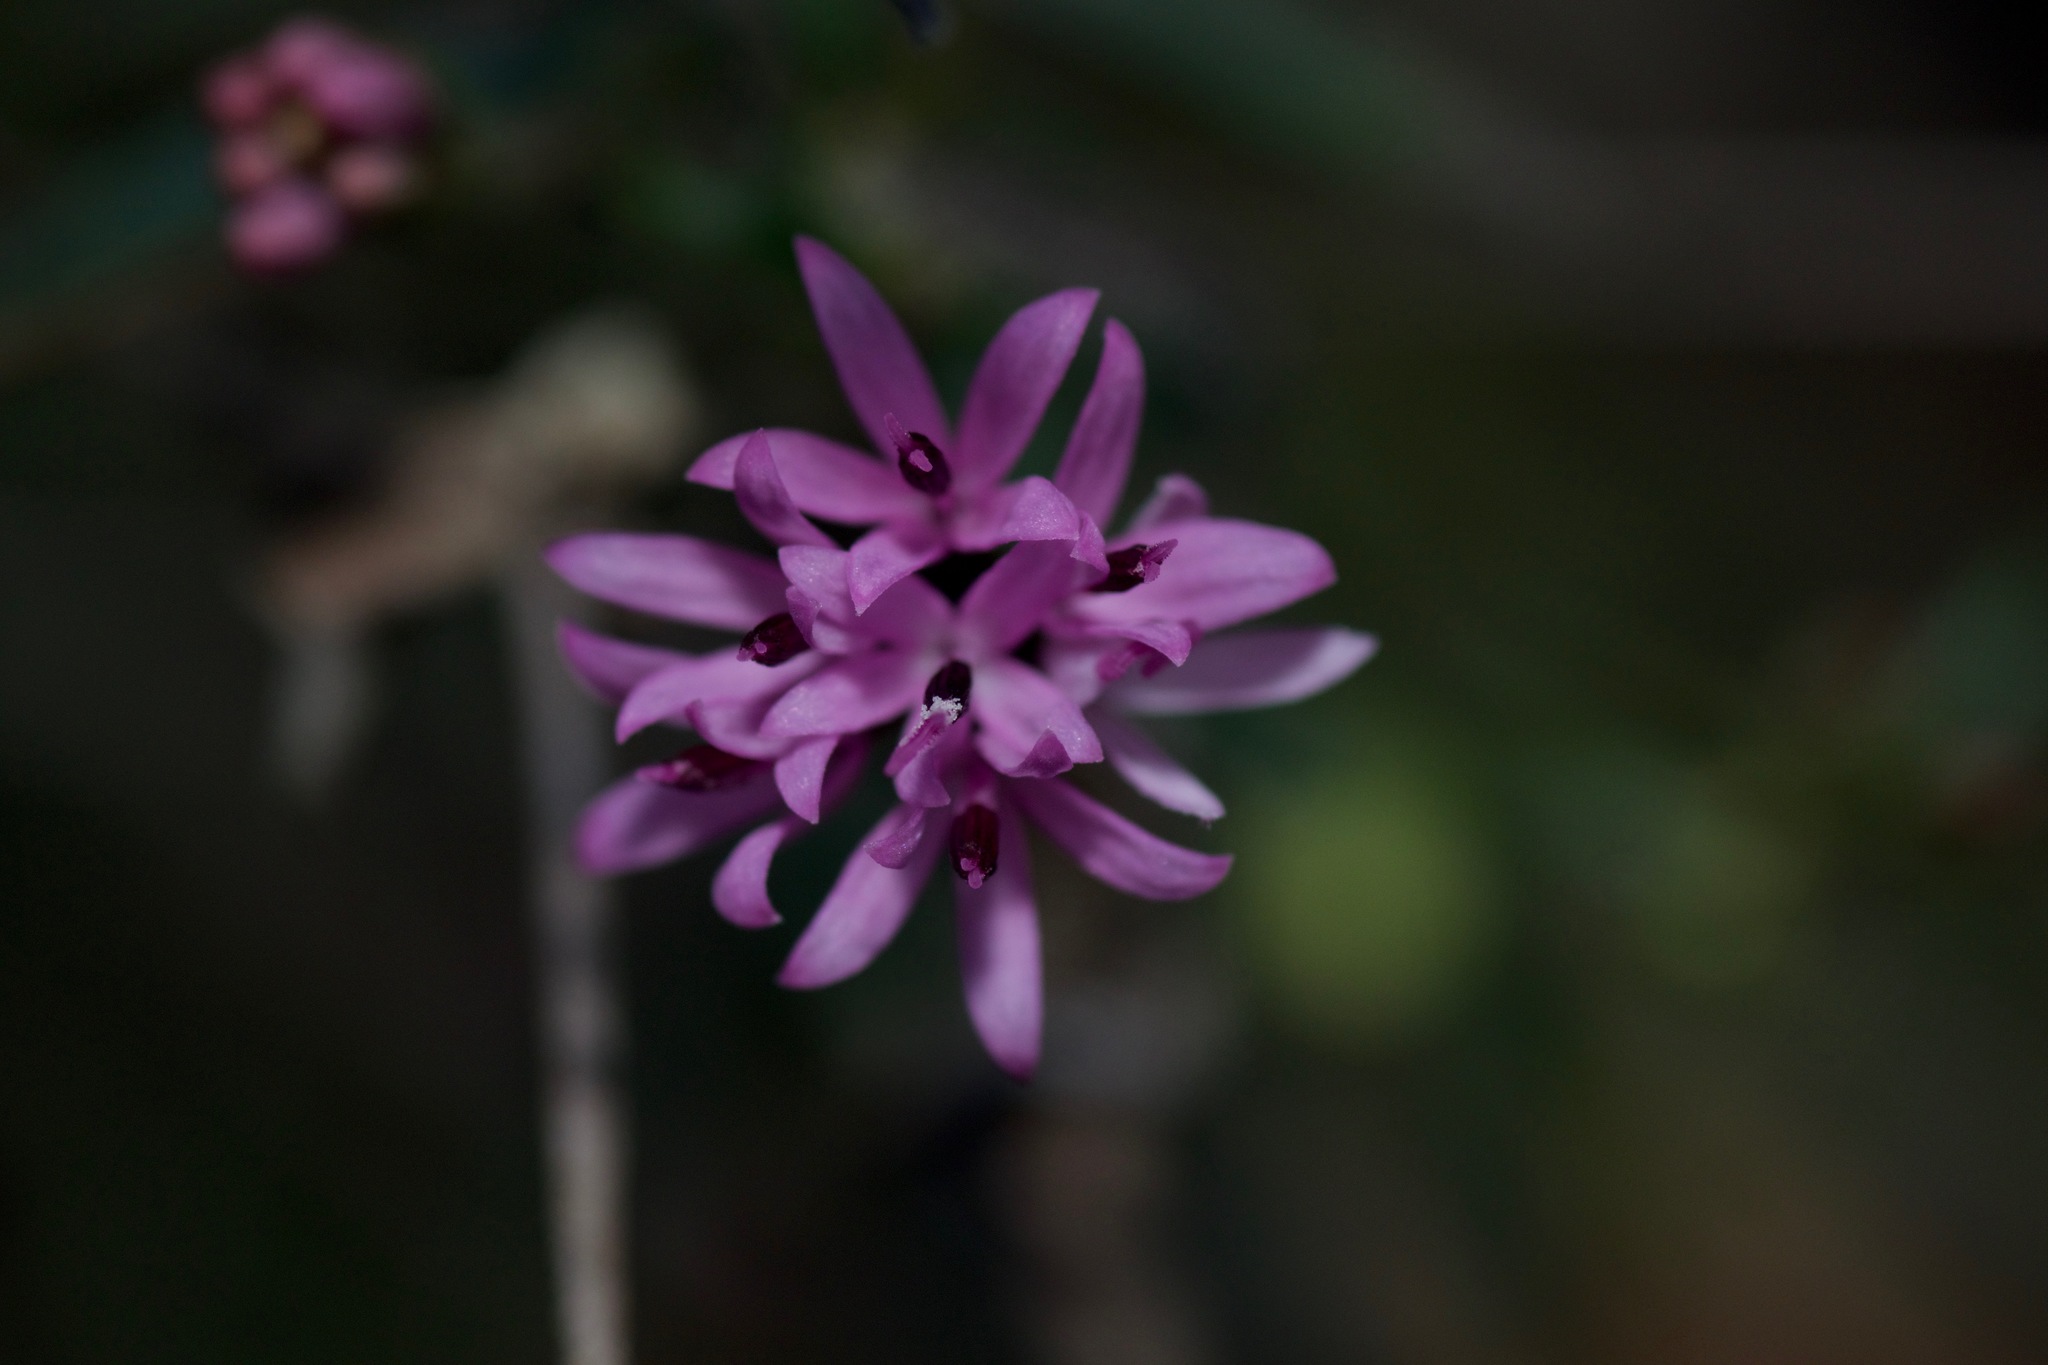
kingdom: Plantae
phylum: Tracheophyta
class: Magnoliopsida
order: Asterales
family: Asteraceae
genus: Palafoxia
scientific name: Palafoxia callosa
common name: Small palafox
